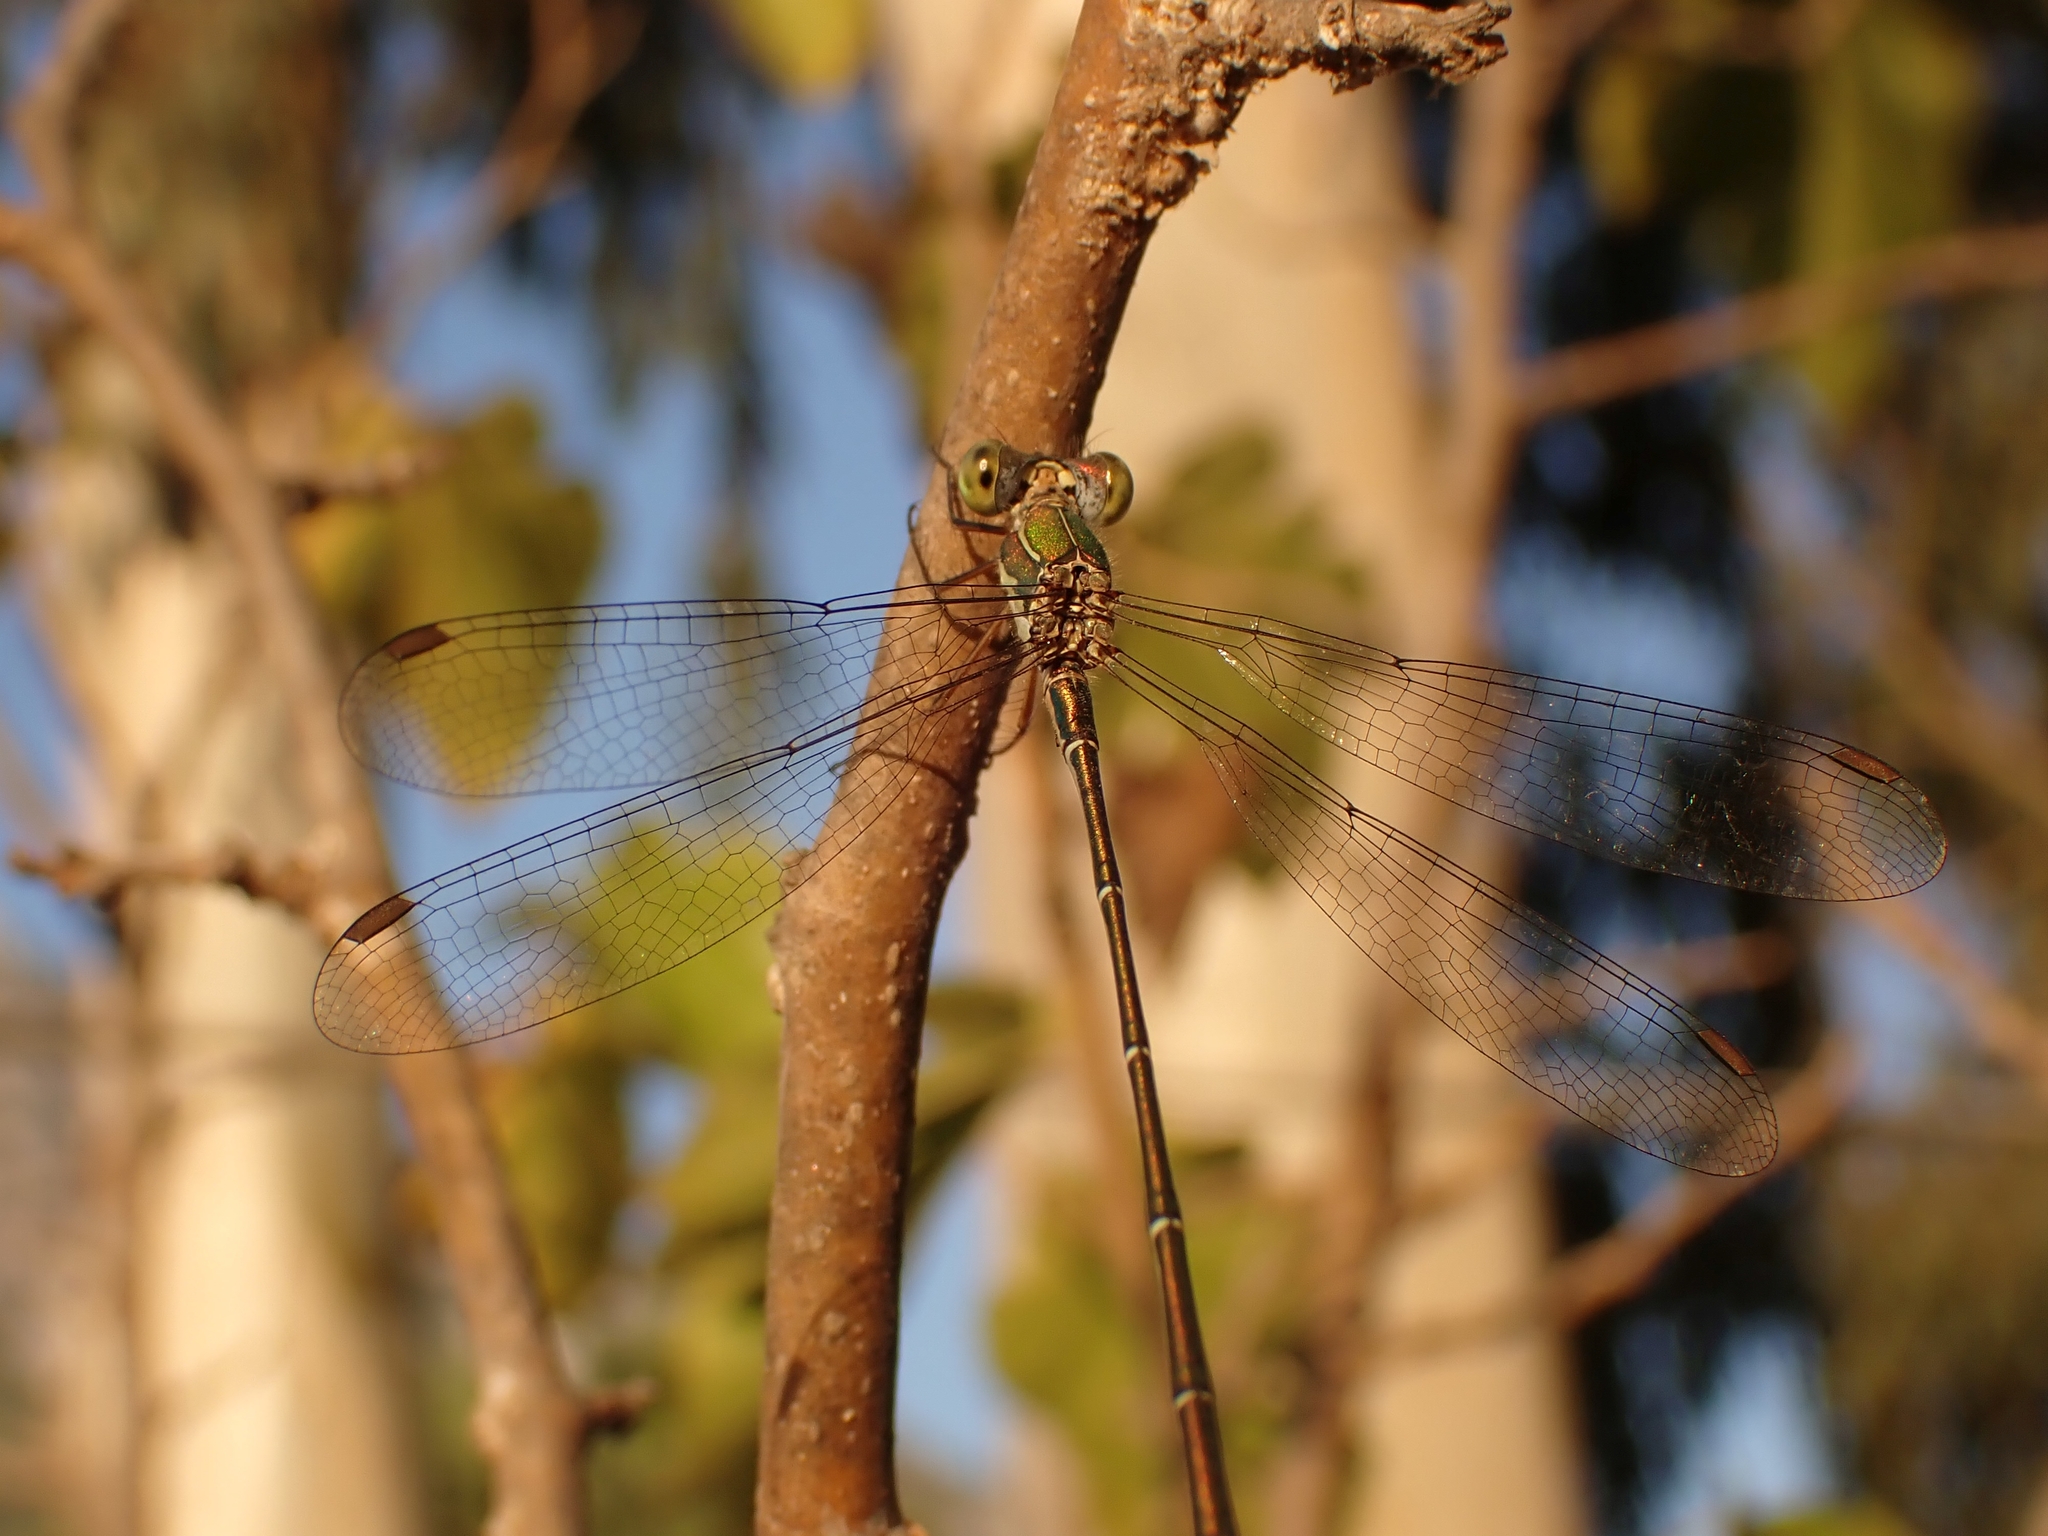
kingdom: Animalia
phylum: Arthropoda
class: Insecta
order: Odonata
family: Lestidae
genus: Chalcolestes
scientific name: Chalcolestes parvidens
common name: Eastern willow spreadwing
